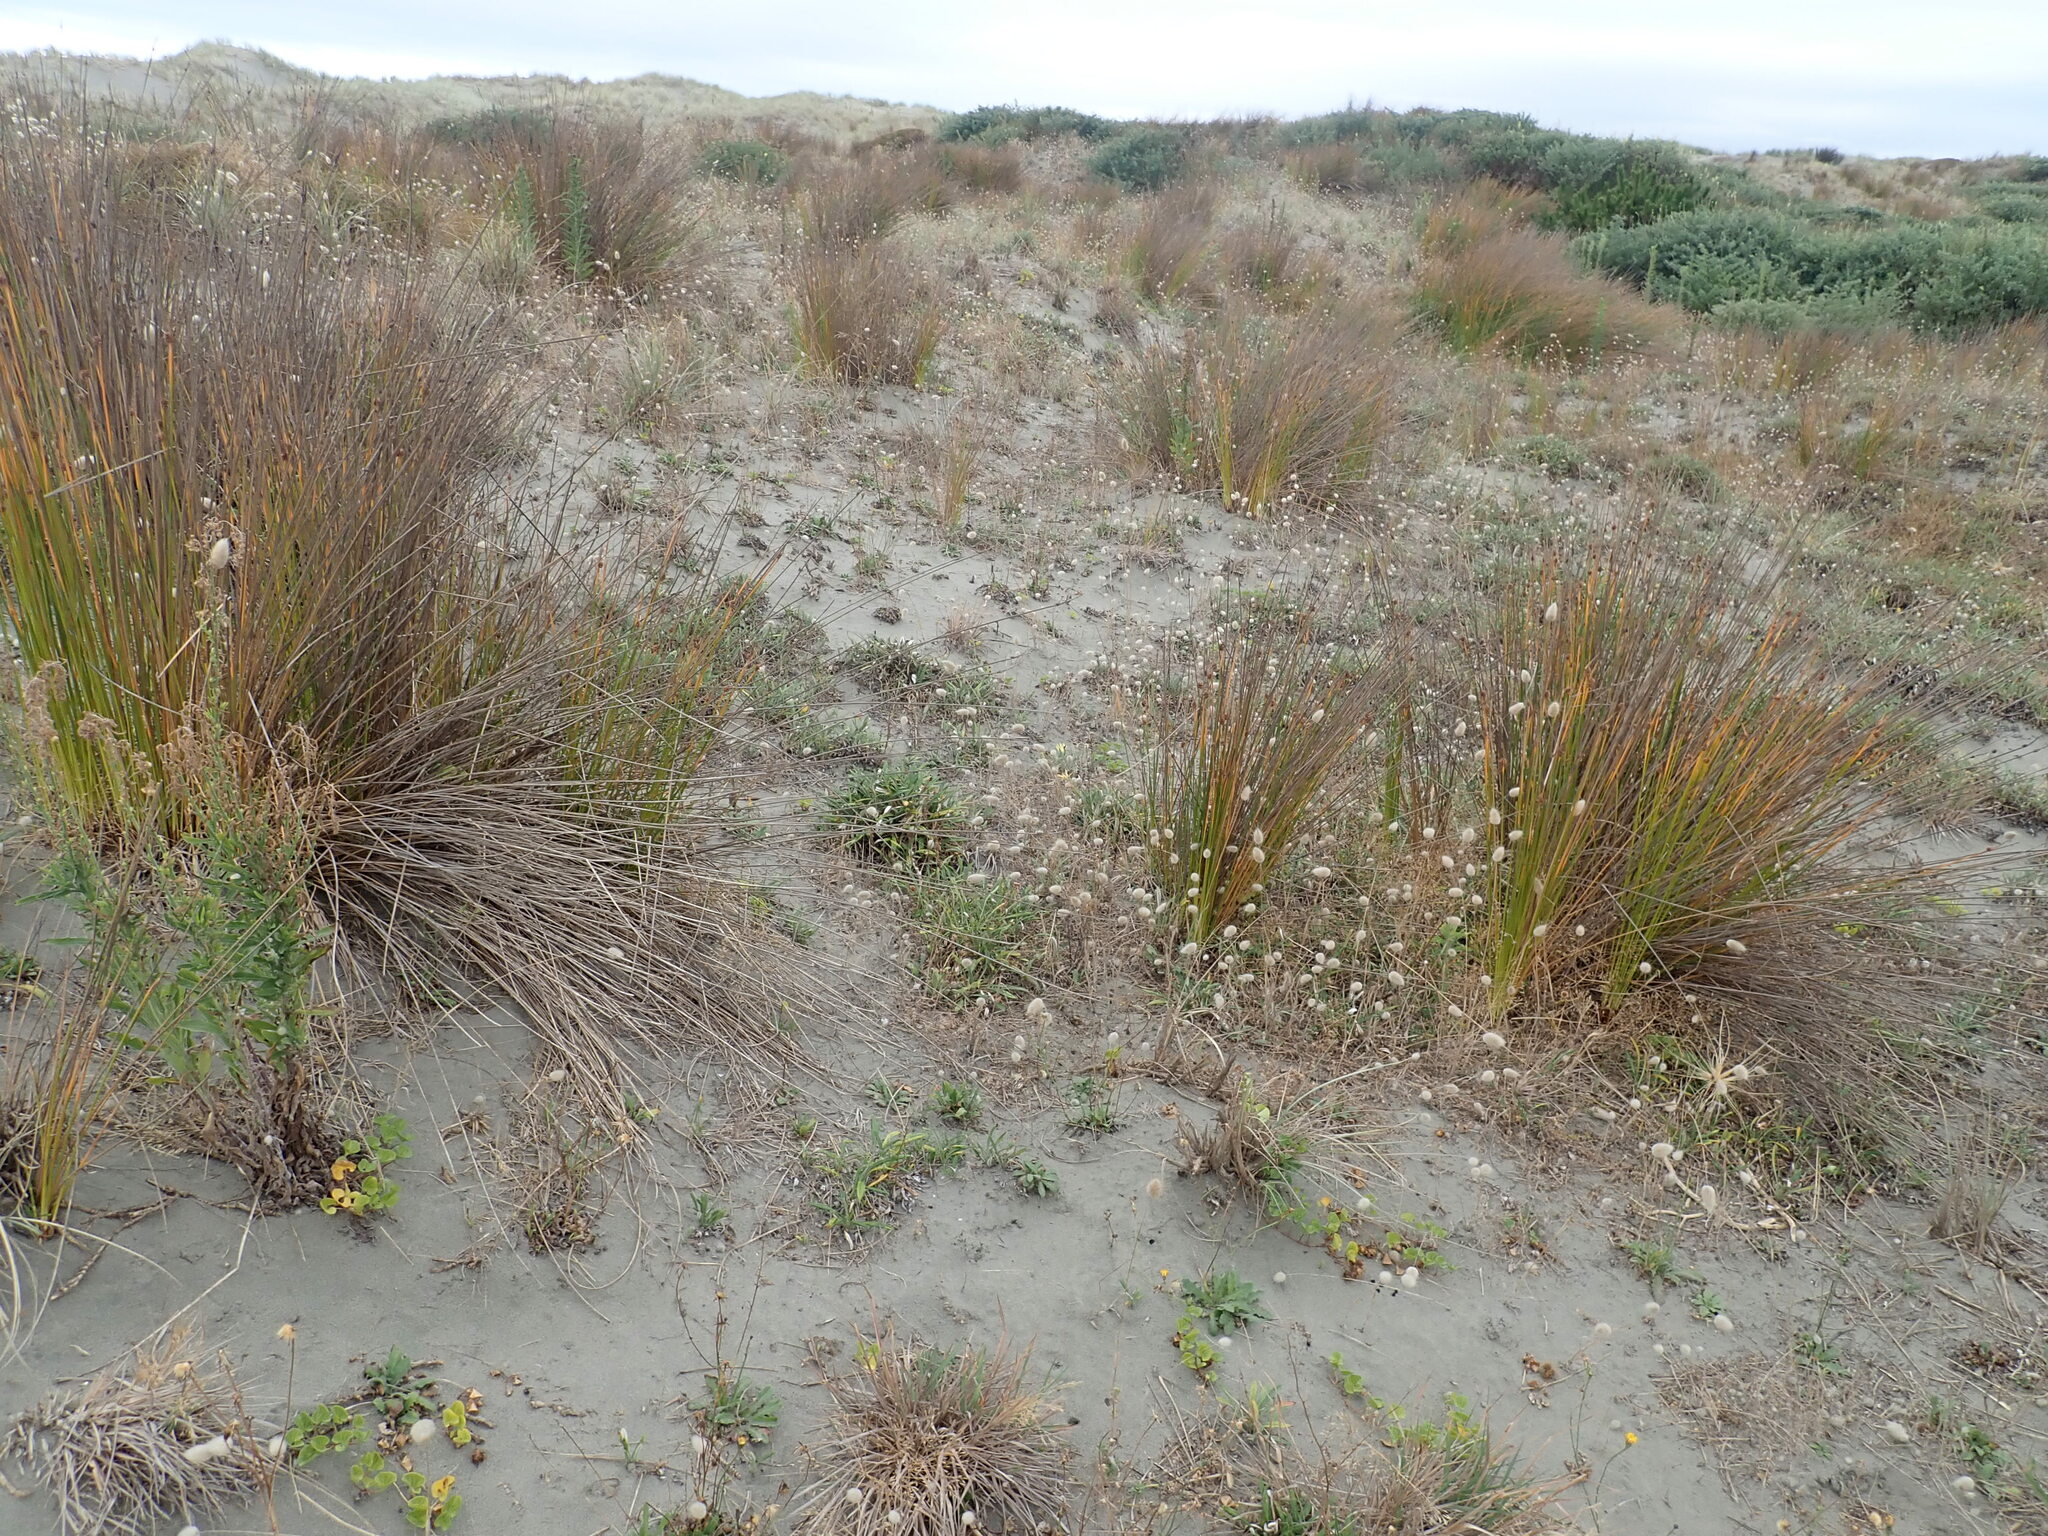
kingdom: Plantae
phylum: Tracheophyta
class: Liliopsida
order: Poales
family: Cyperaceae
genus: Ficinia
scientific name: Ficinia nodosa
